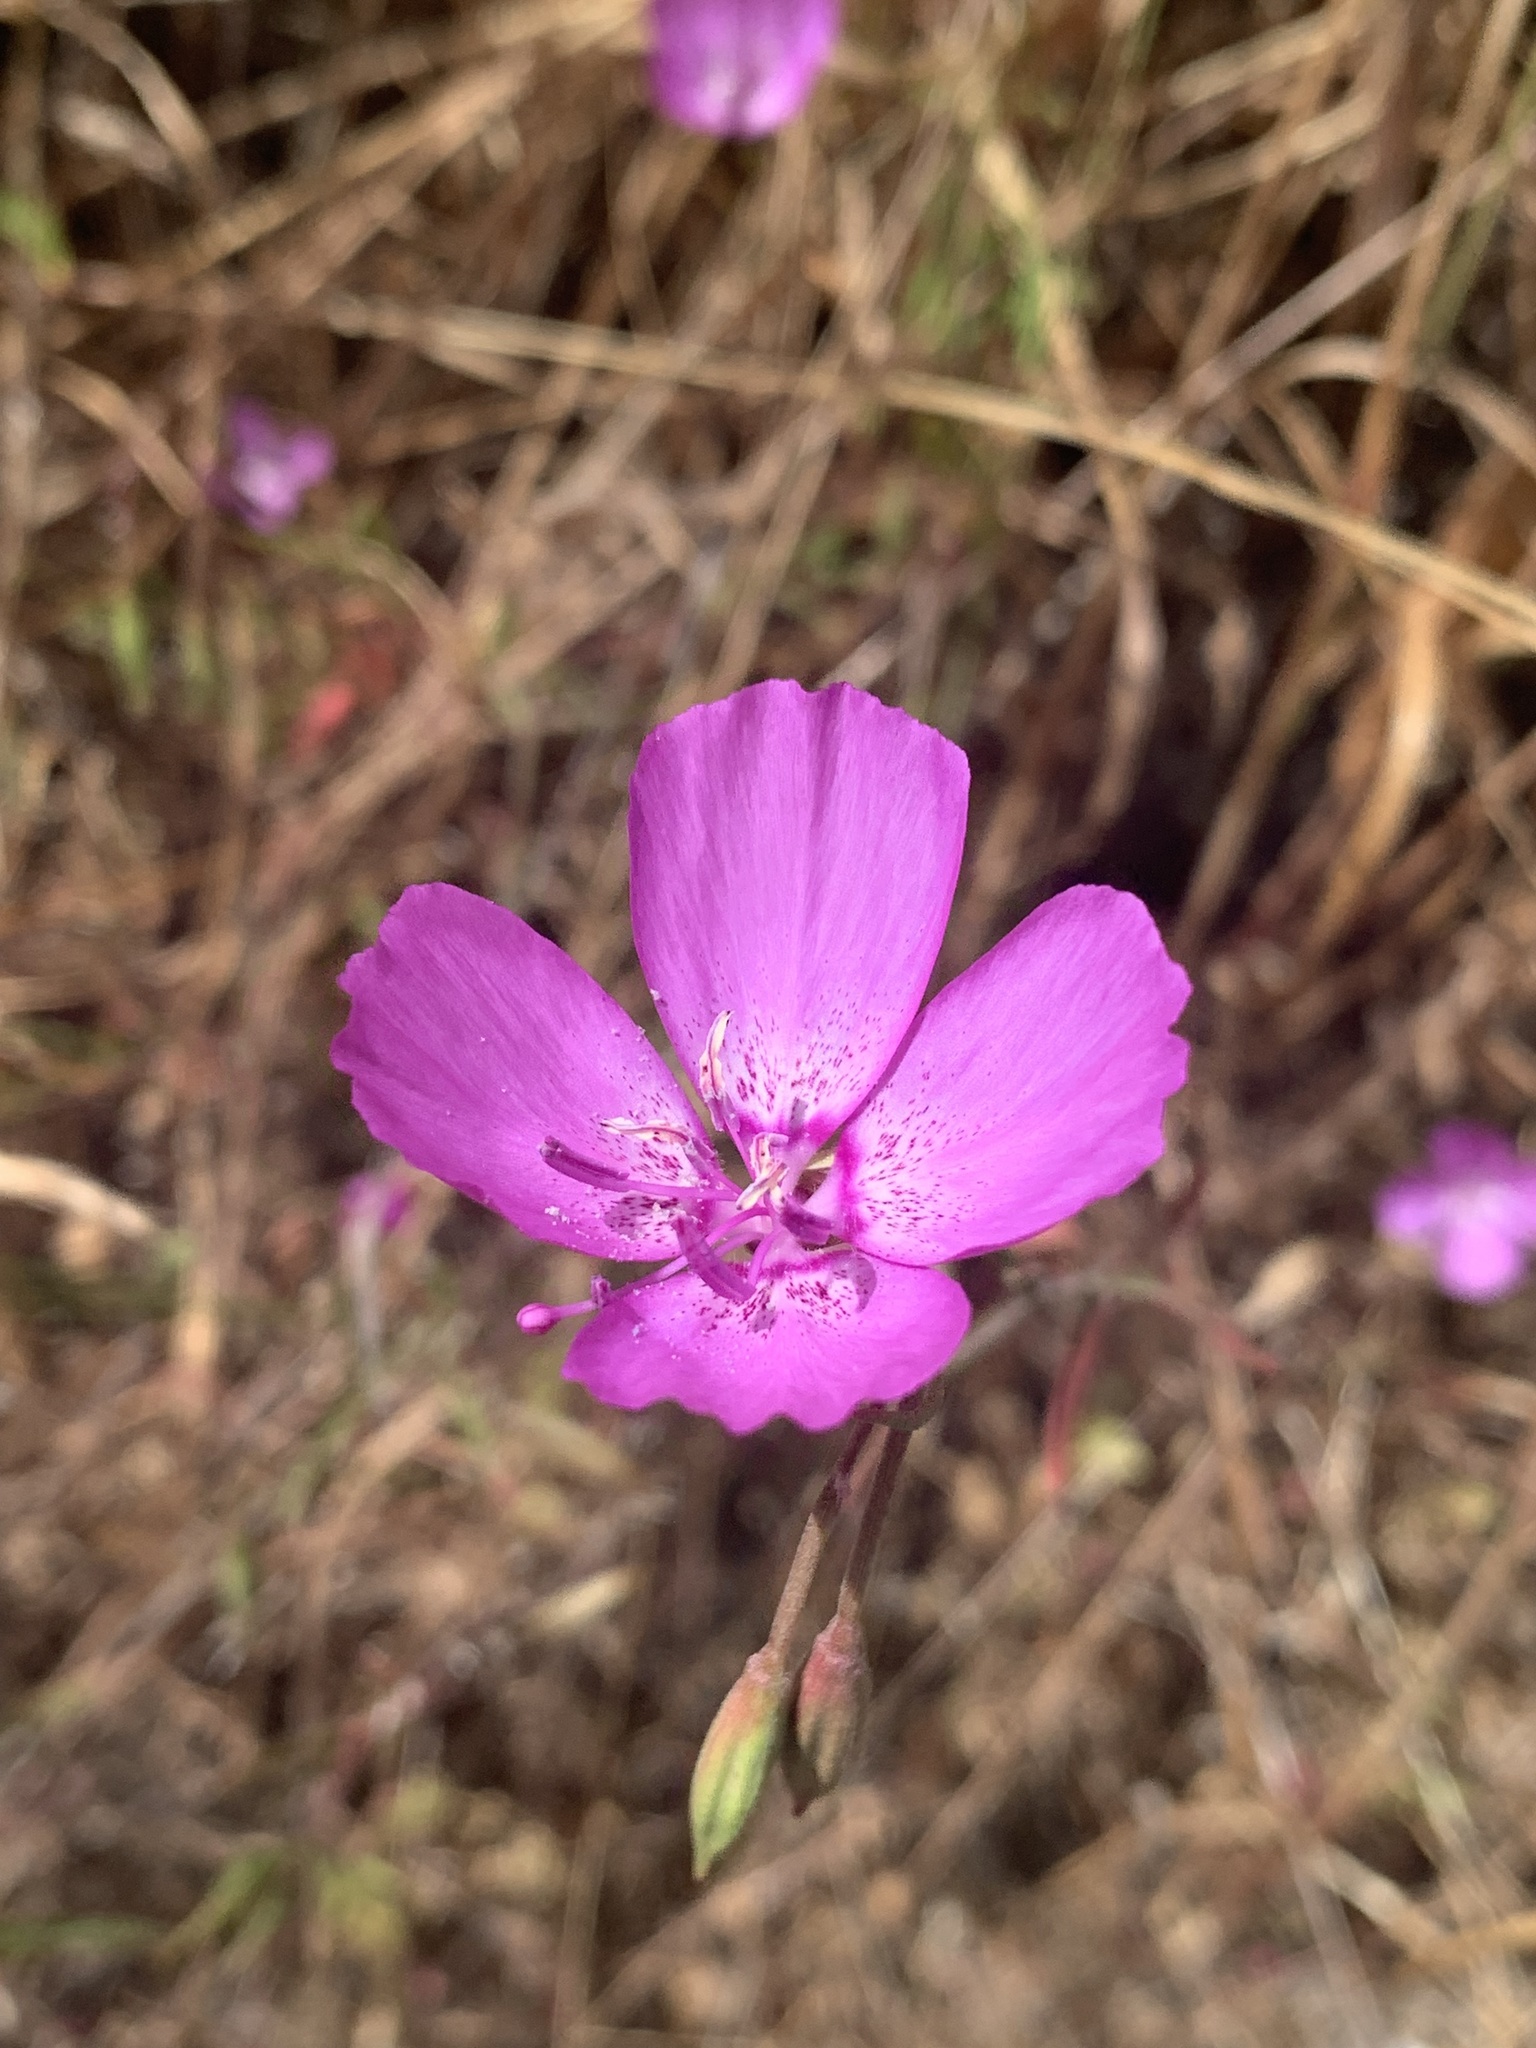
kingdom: Plantae
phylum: Tracheophyta
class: Magnoliopsida
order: Myrtales
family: Onagraceae
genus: Clarkia
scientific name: Clarkia lewisii
